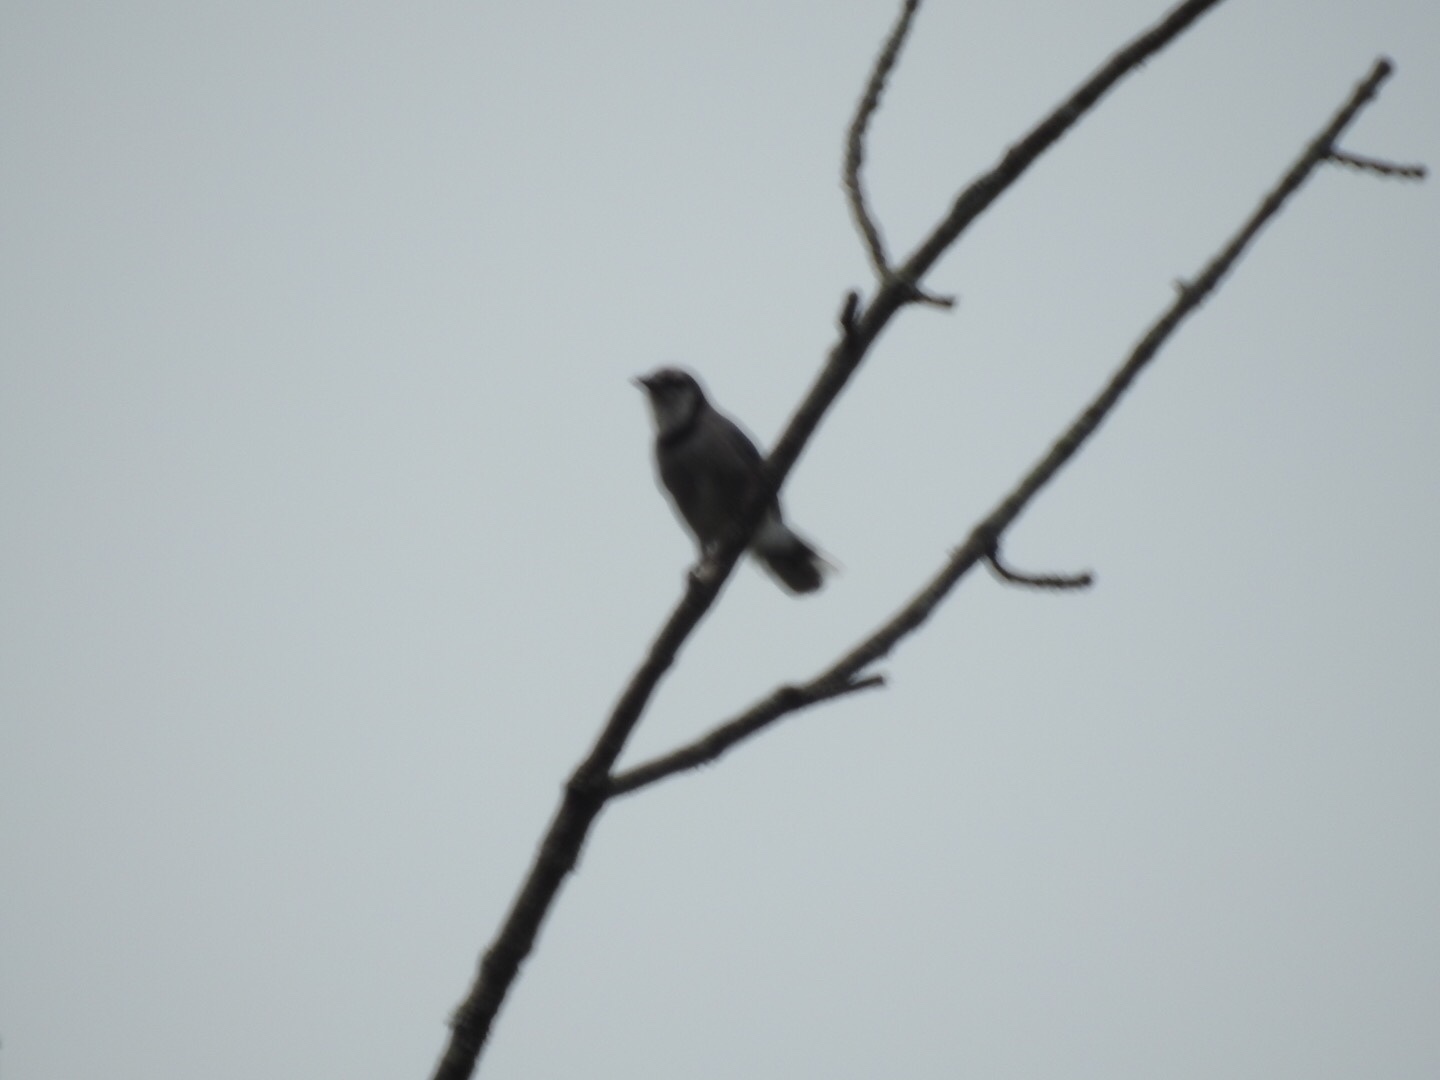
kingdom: Animalia
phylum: Chordata
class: Aves
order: Passeriformes
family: Corvidae
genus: Cyanocitta
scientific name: Cyanocitta cristata
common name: Blue jay
